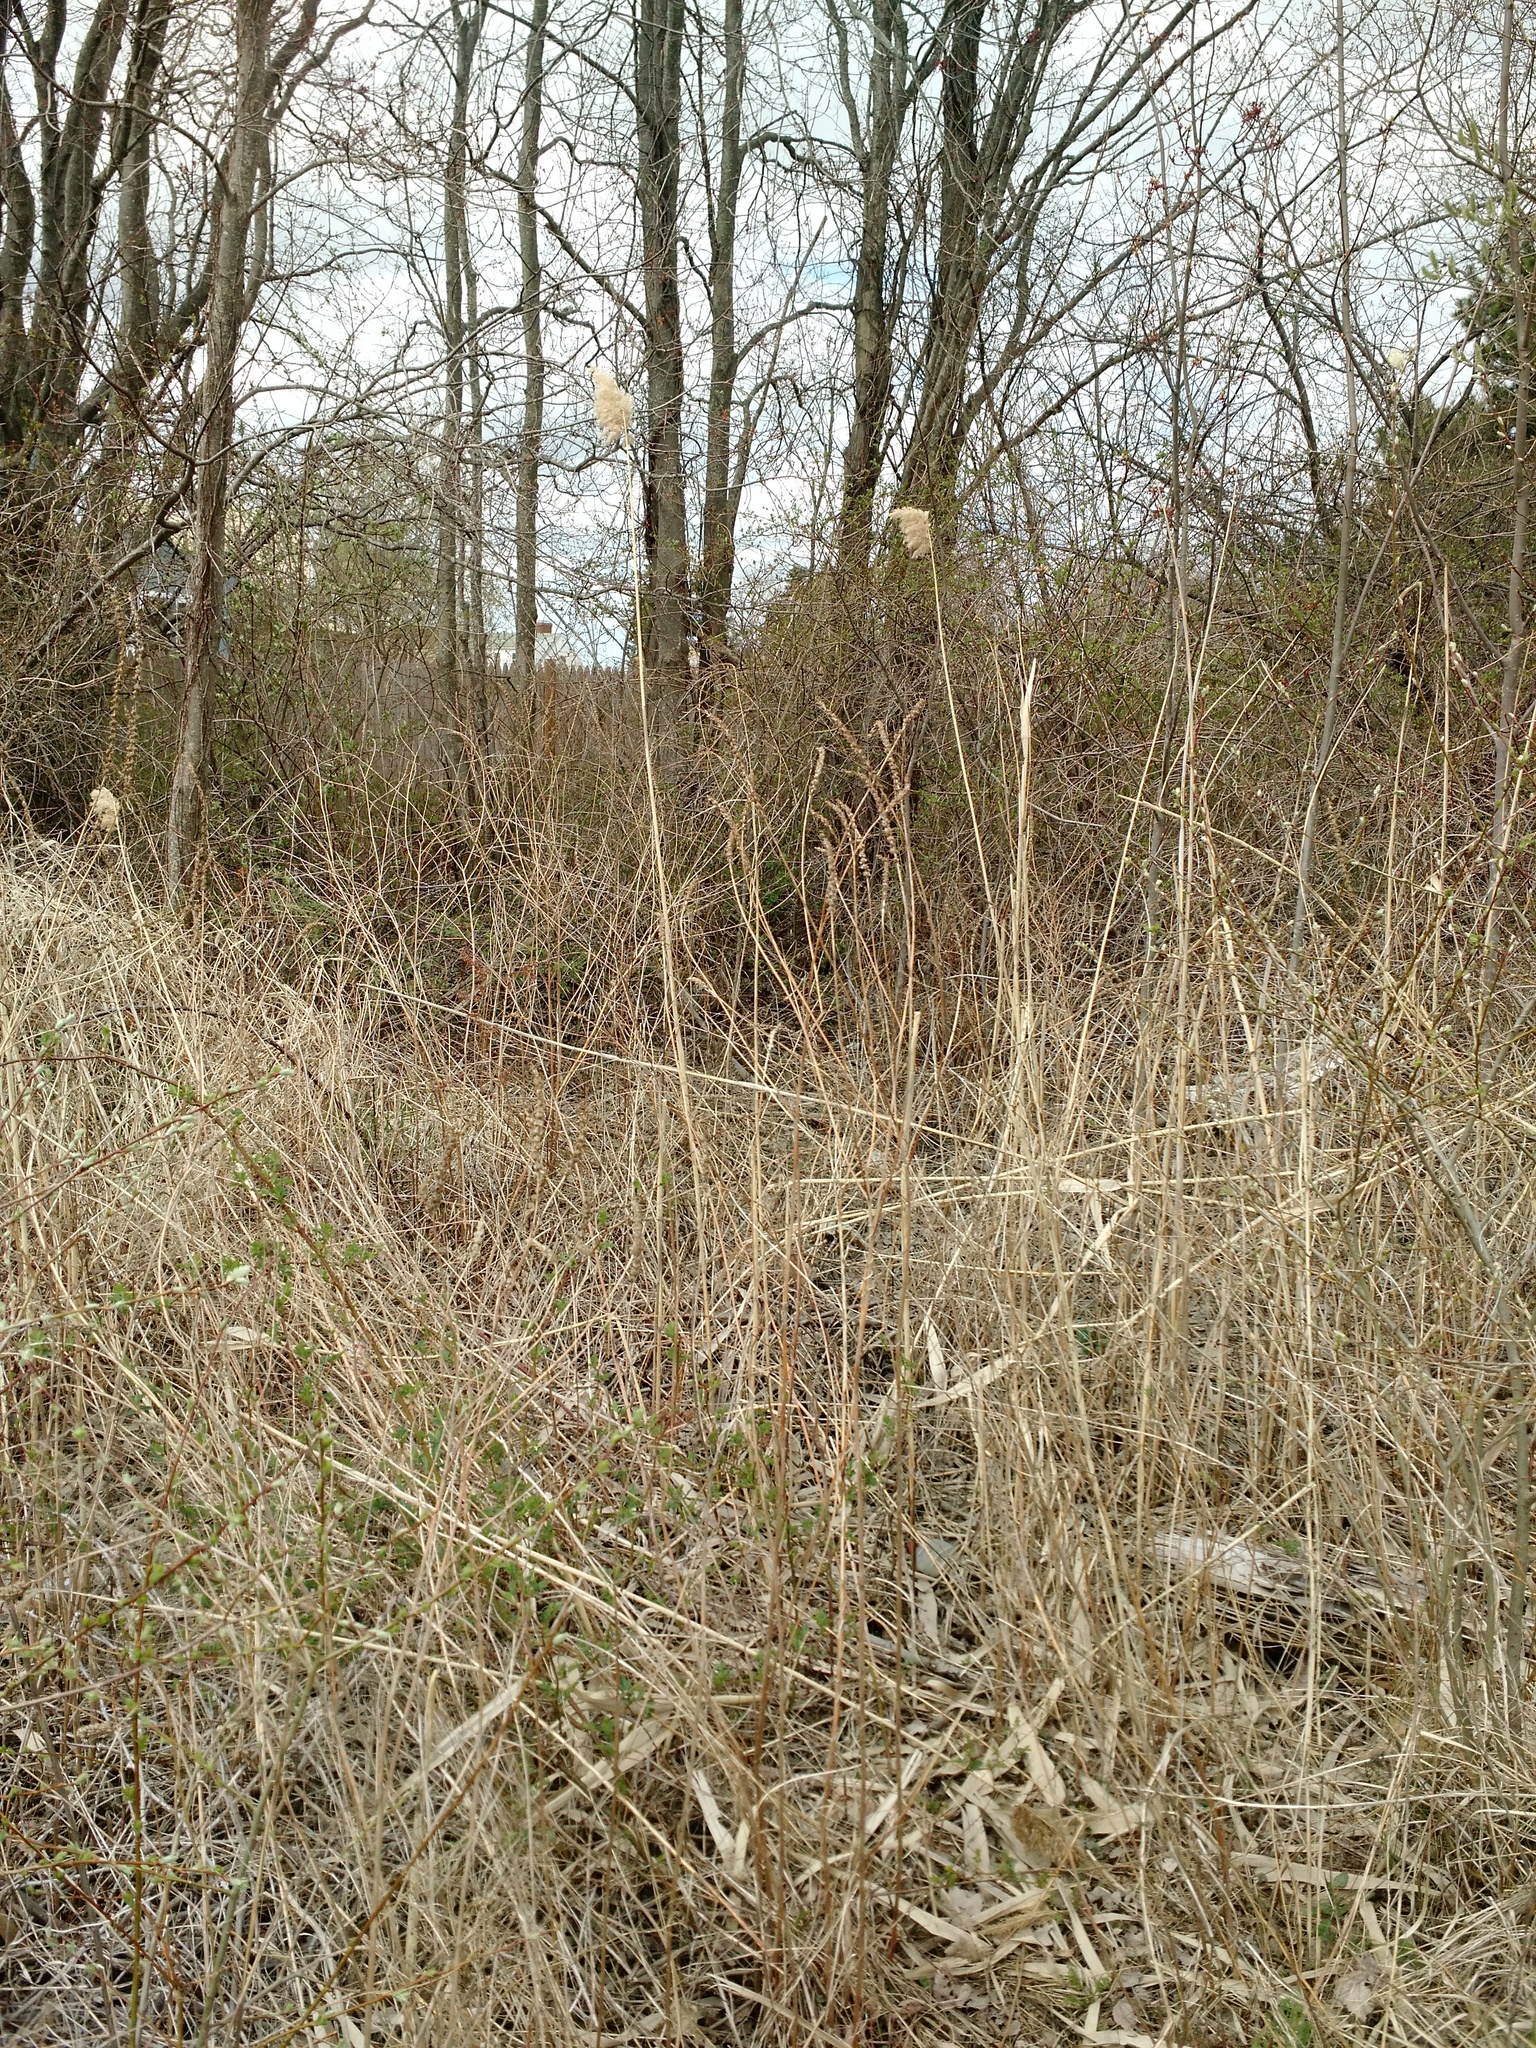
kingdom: Plantae
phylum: Tracheophyta
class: Liliopsida
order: Poales
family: Poaceae
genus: Phragmites
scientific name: Phragmites australis
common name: Common reed
